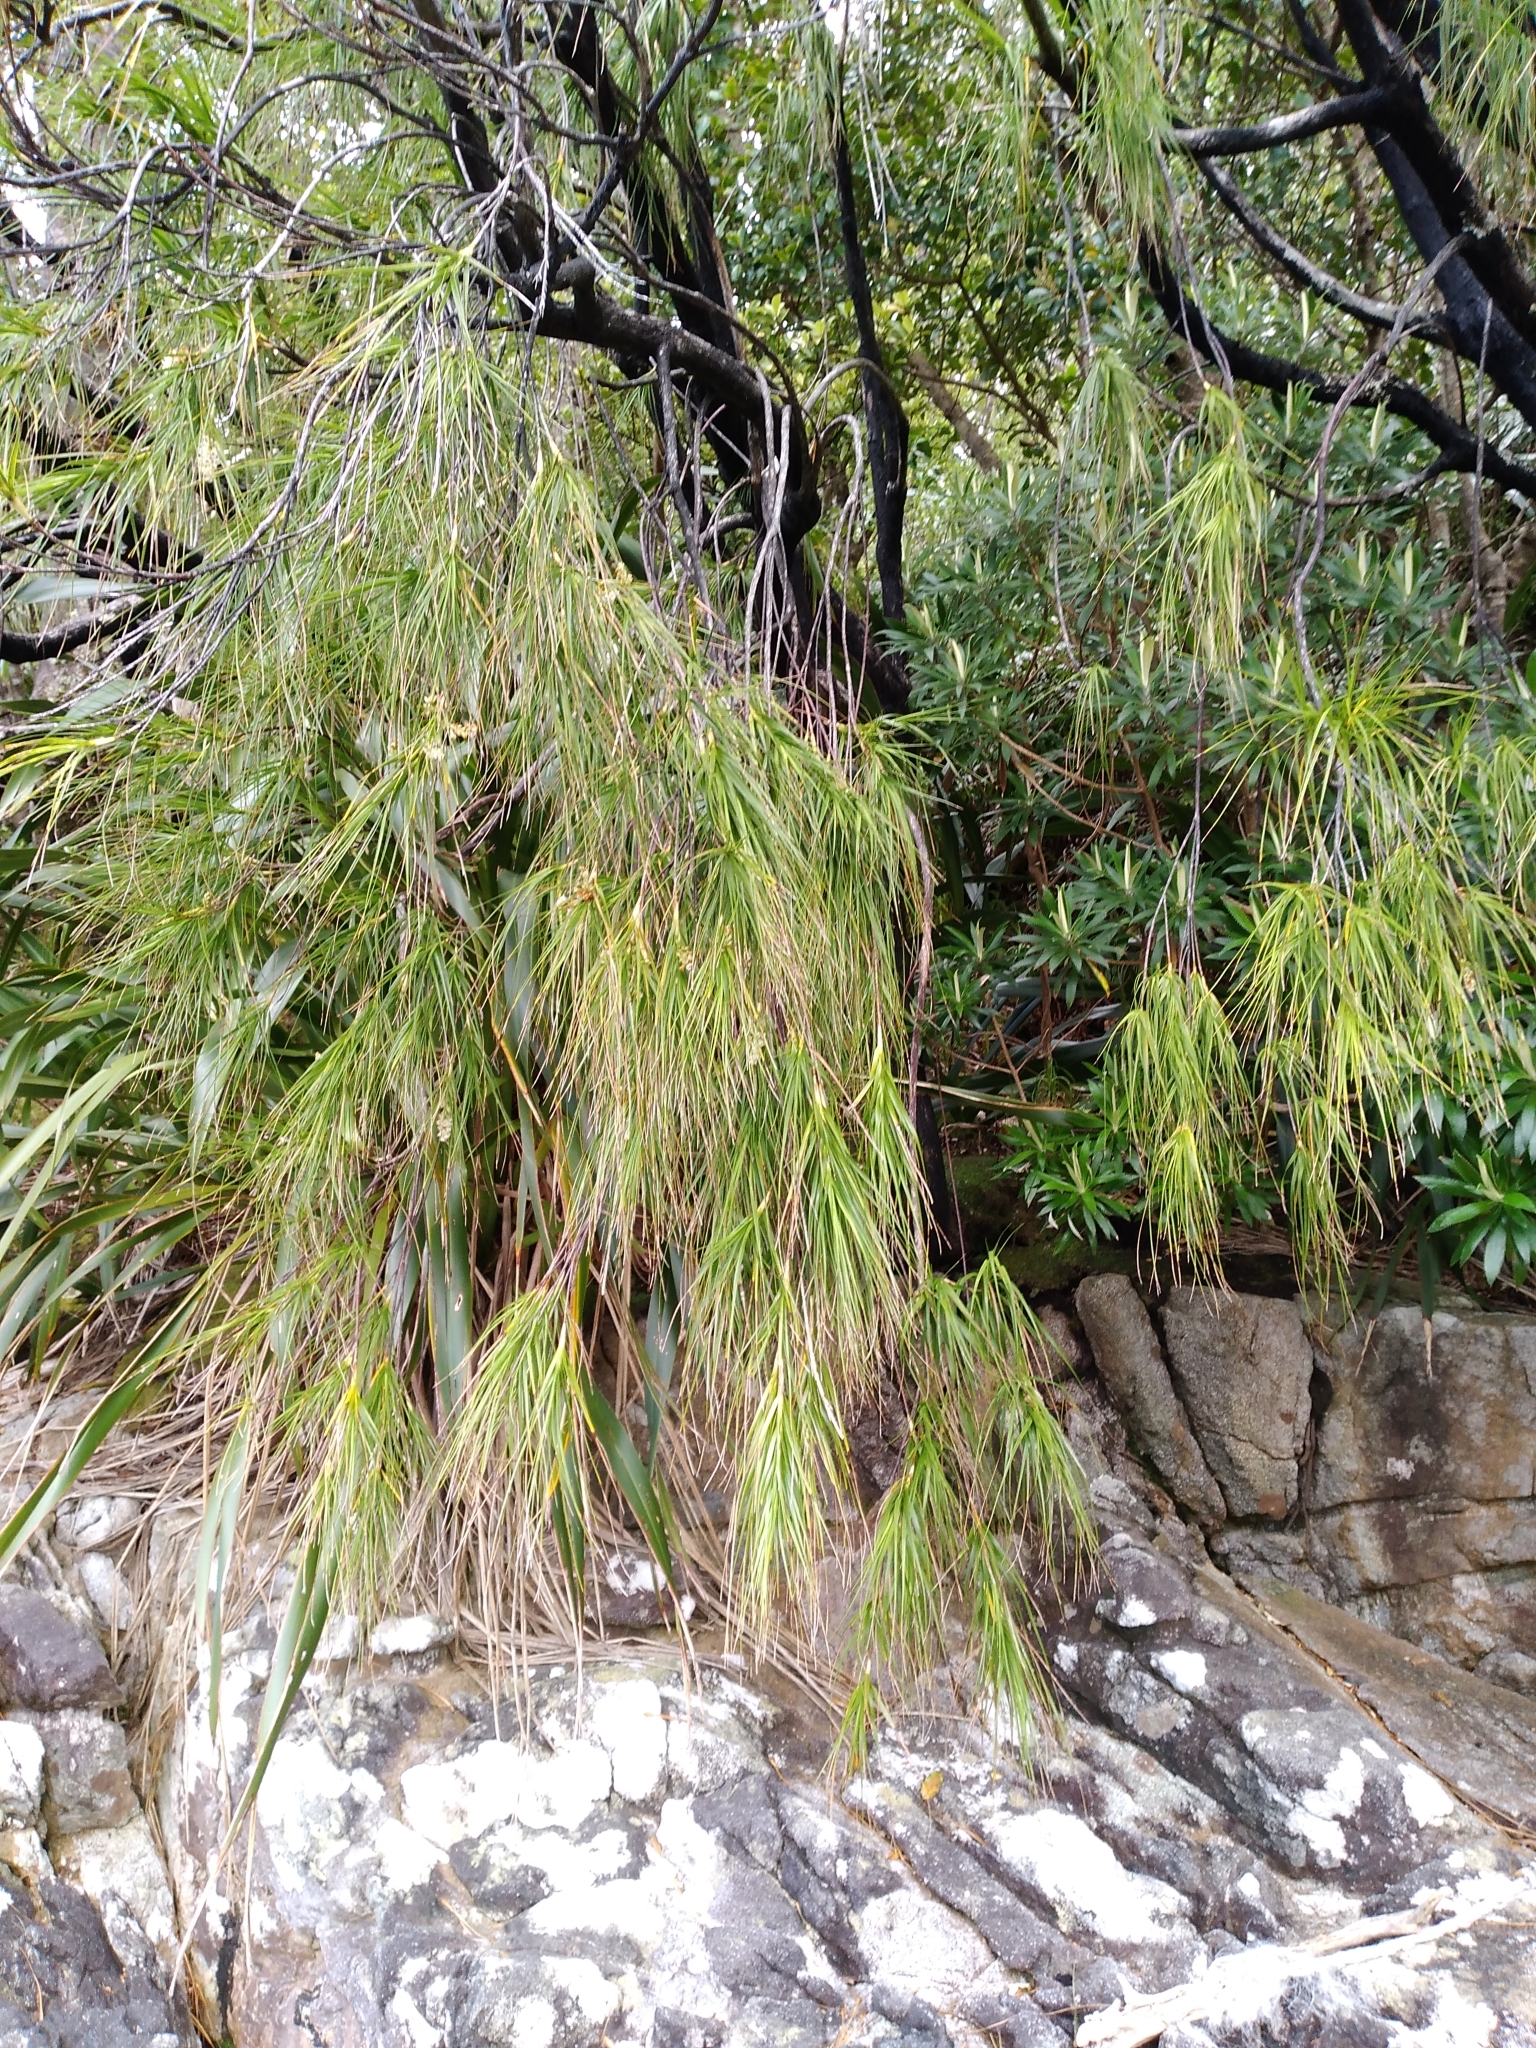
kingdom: Plantae
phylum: Tracheophyta
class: Magnoliopsida
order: Ericales
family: Ericaceae
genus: Dracophyllum
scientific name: Dracophyllum longifolium
